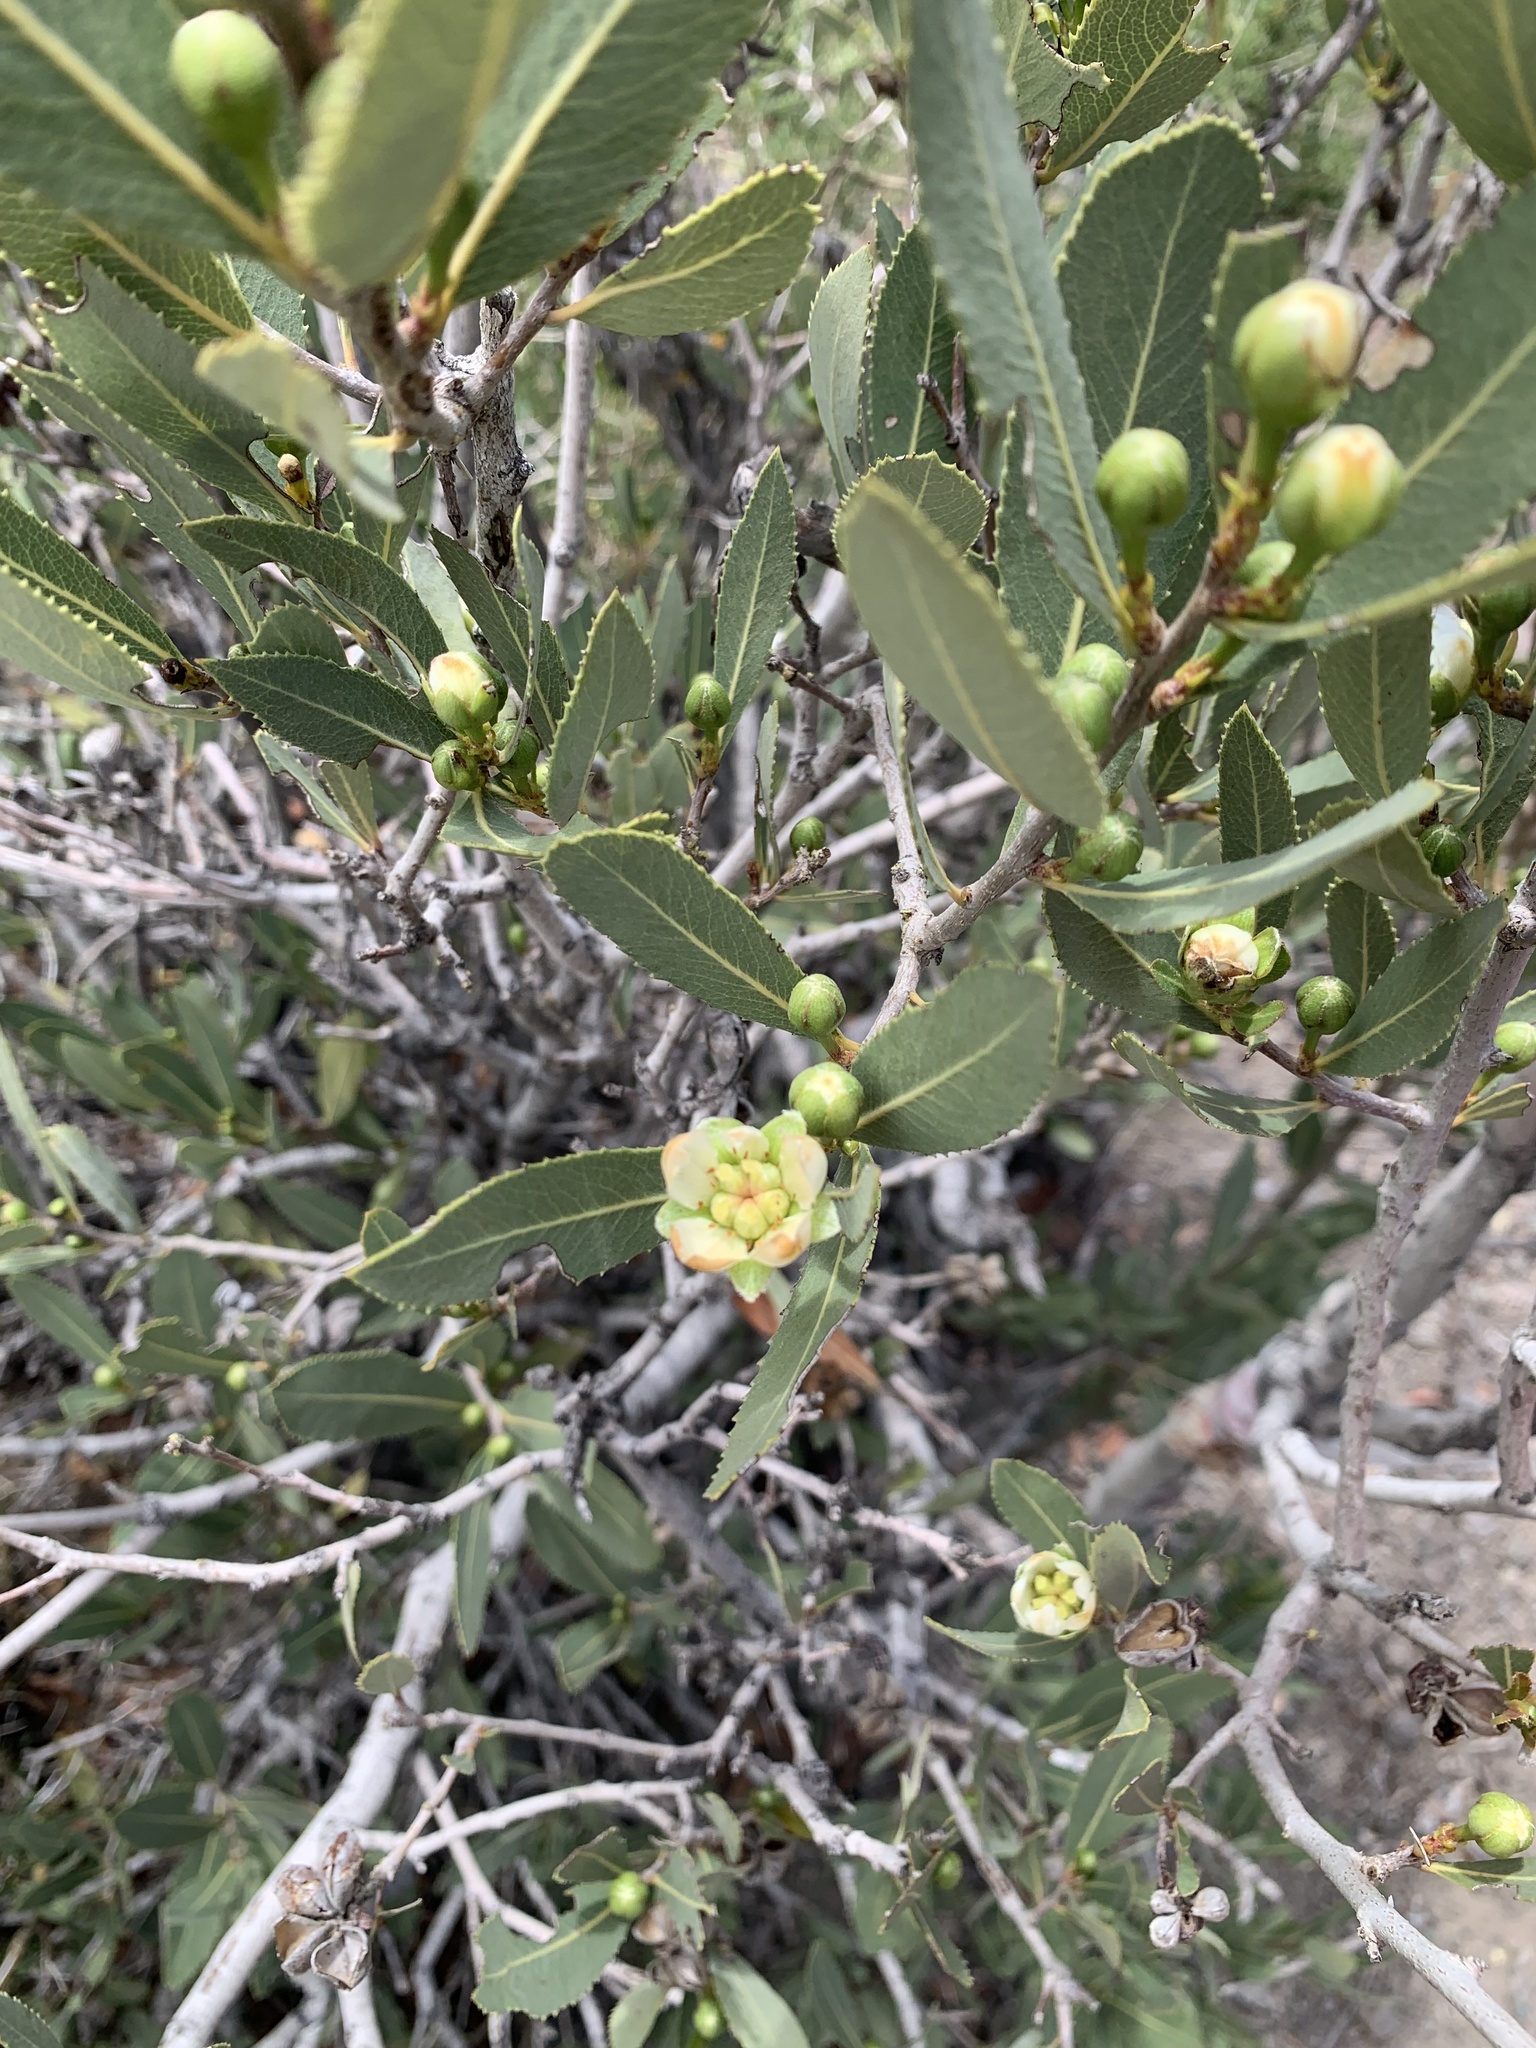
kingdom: Plantae
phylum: Tracheophyta
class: Magnoliopsida
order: Rosales
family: Rosaceae
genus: Kageneckia
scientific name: Kageneckia oblonga
